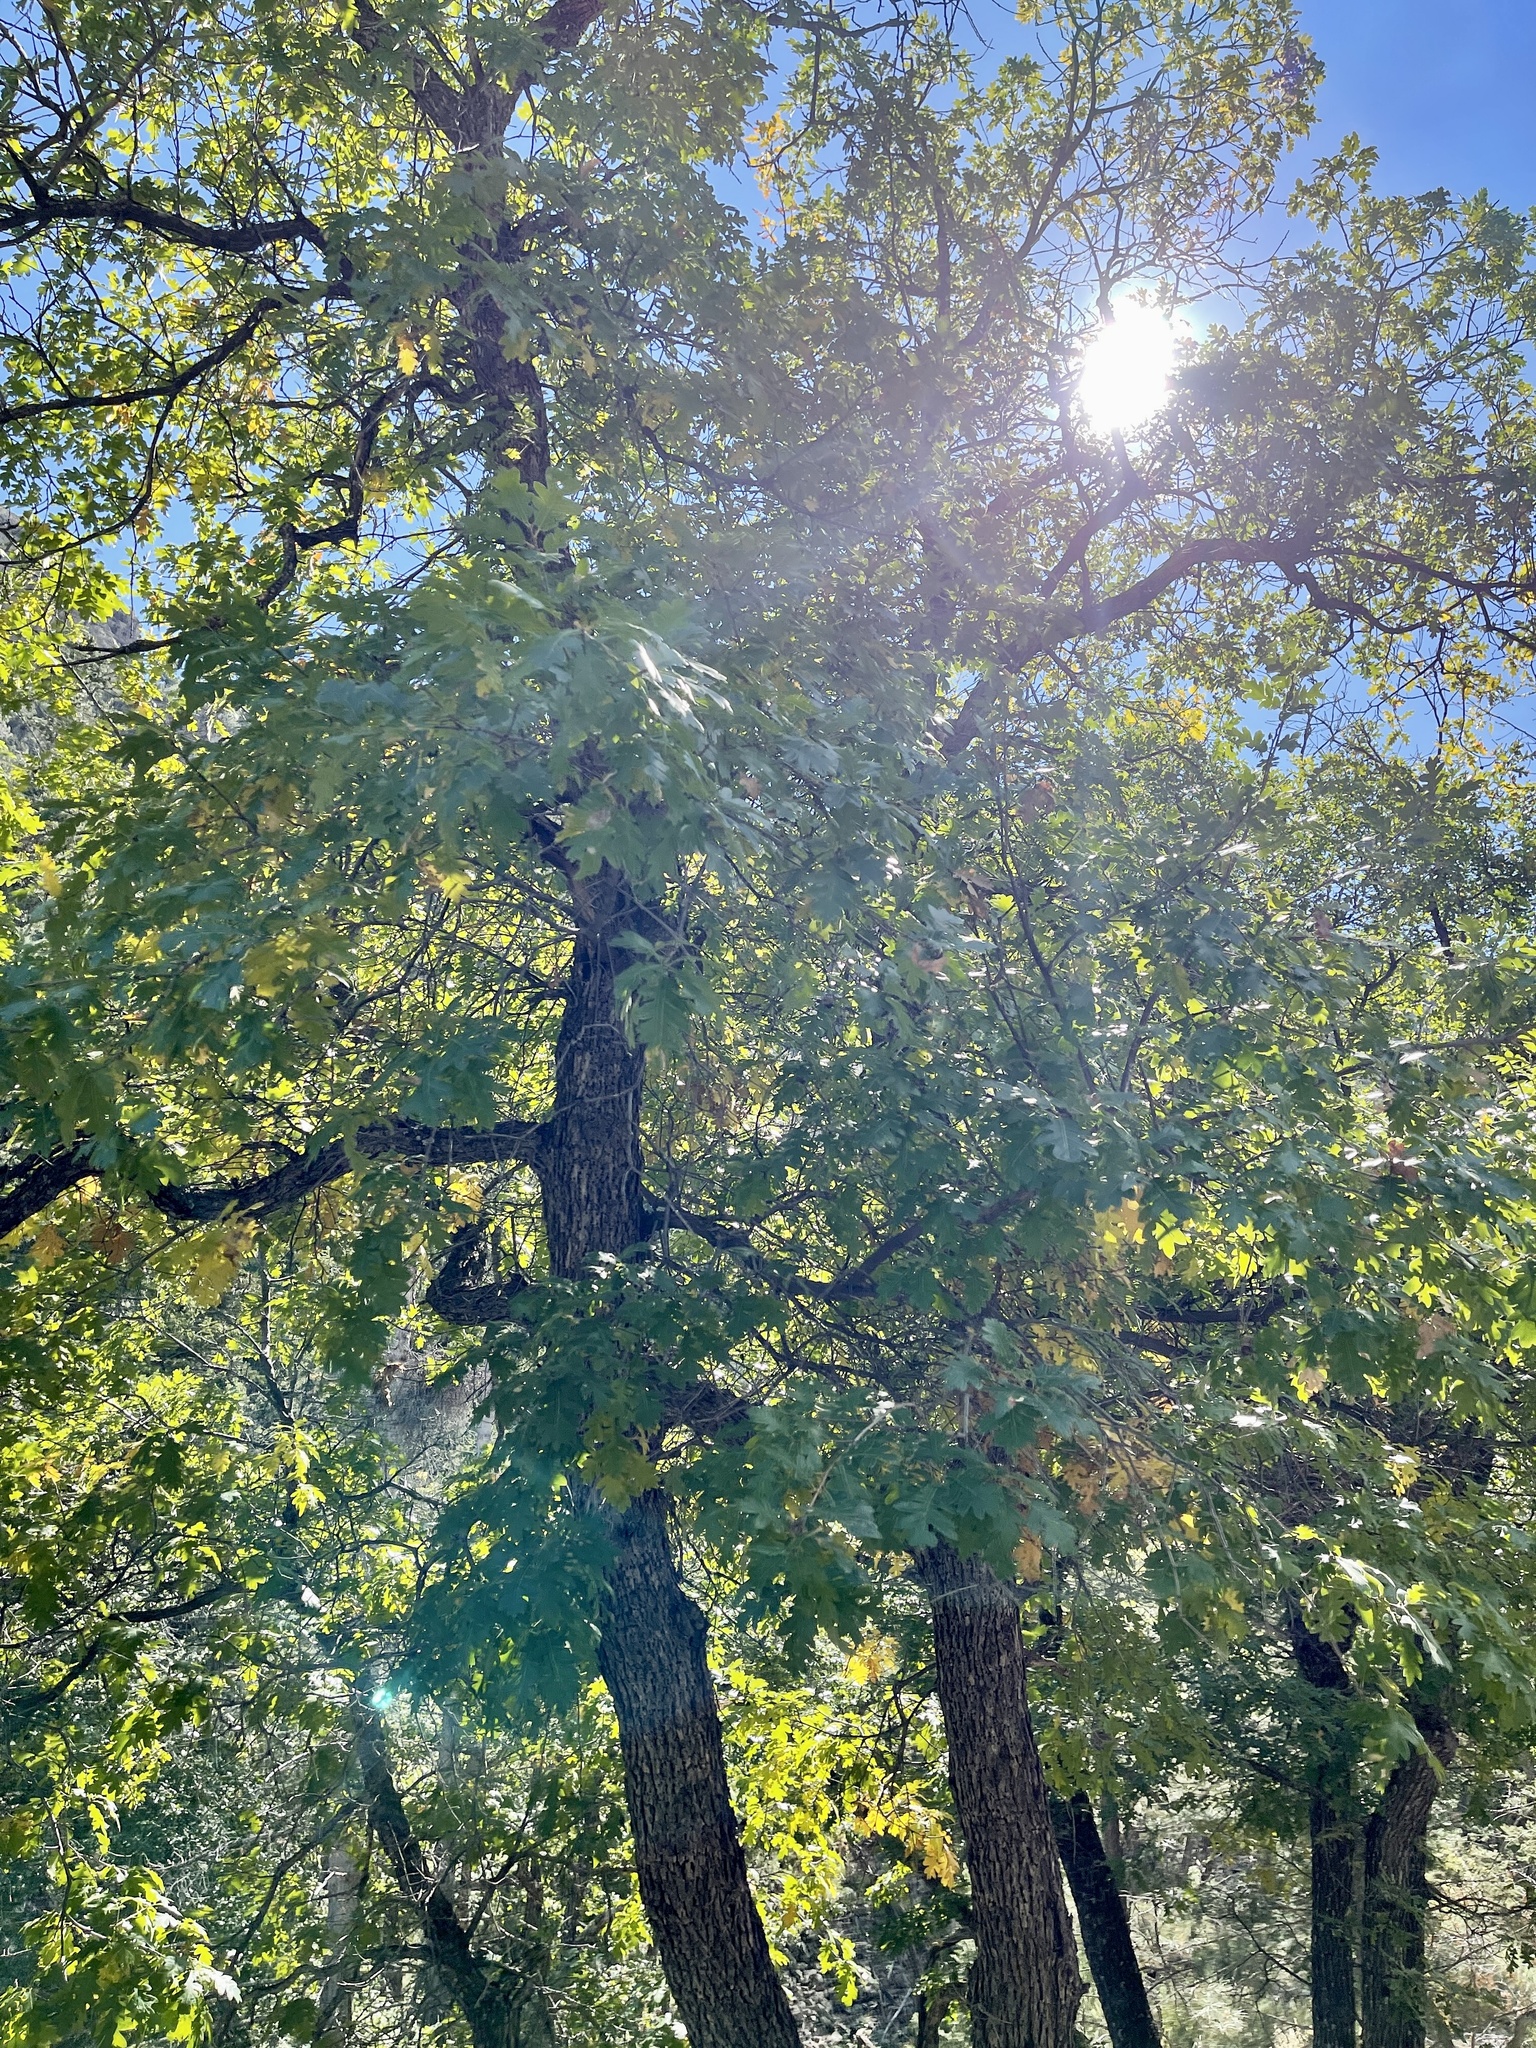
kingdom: Plantae
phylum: Tracheophyta
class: Magnoliopsida
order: Fagales
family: Fagaceae
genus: Quercus
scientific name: Quercus gambelii
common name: Gambel oak
